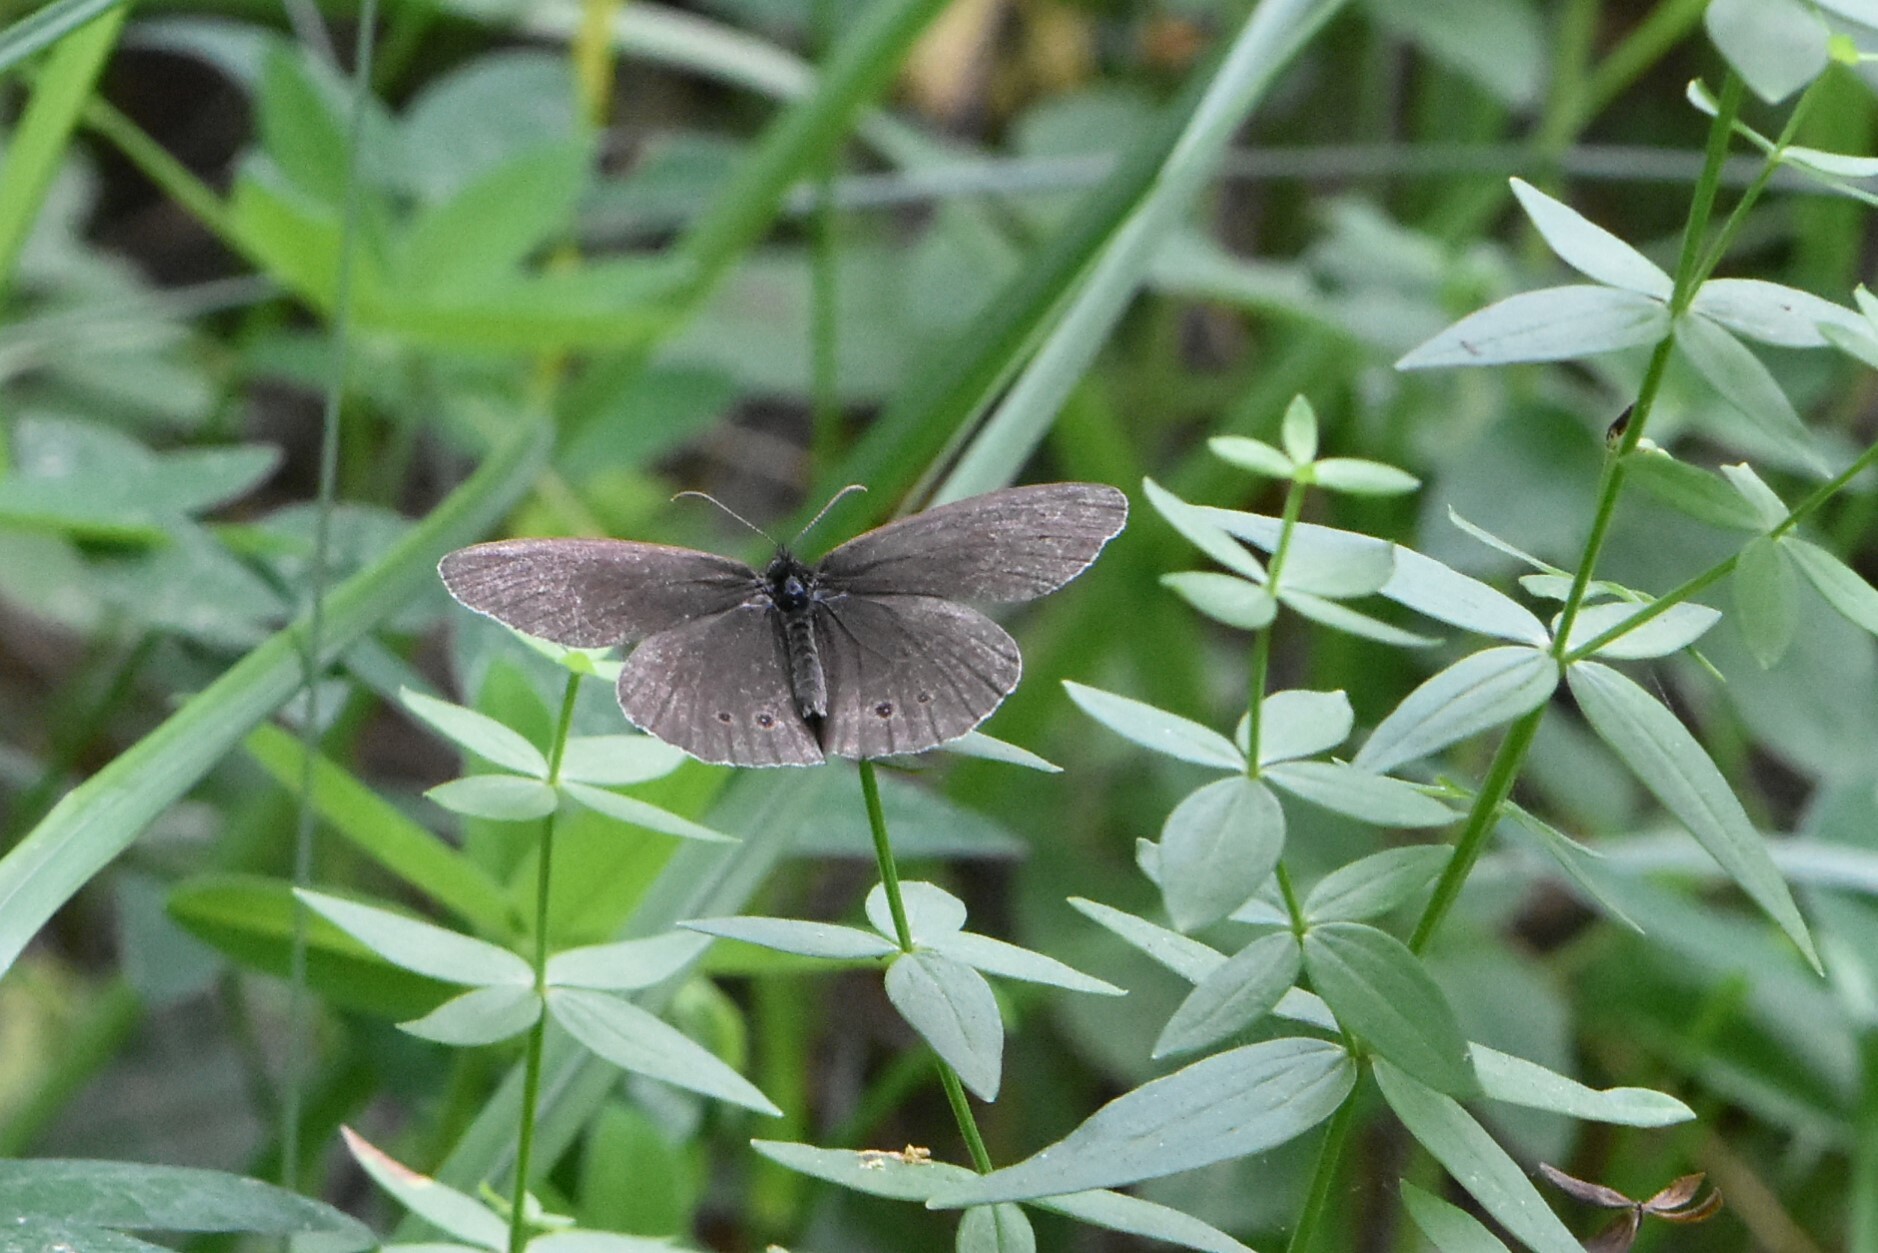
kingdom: Animalia
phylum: Arthropoda
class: Insecta
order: Lepidoptera
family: Nymphalidae
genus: Aphantopus
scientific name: Aphantopus hyperantus
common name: Ringlet
